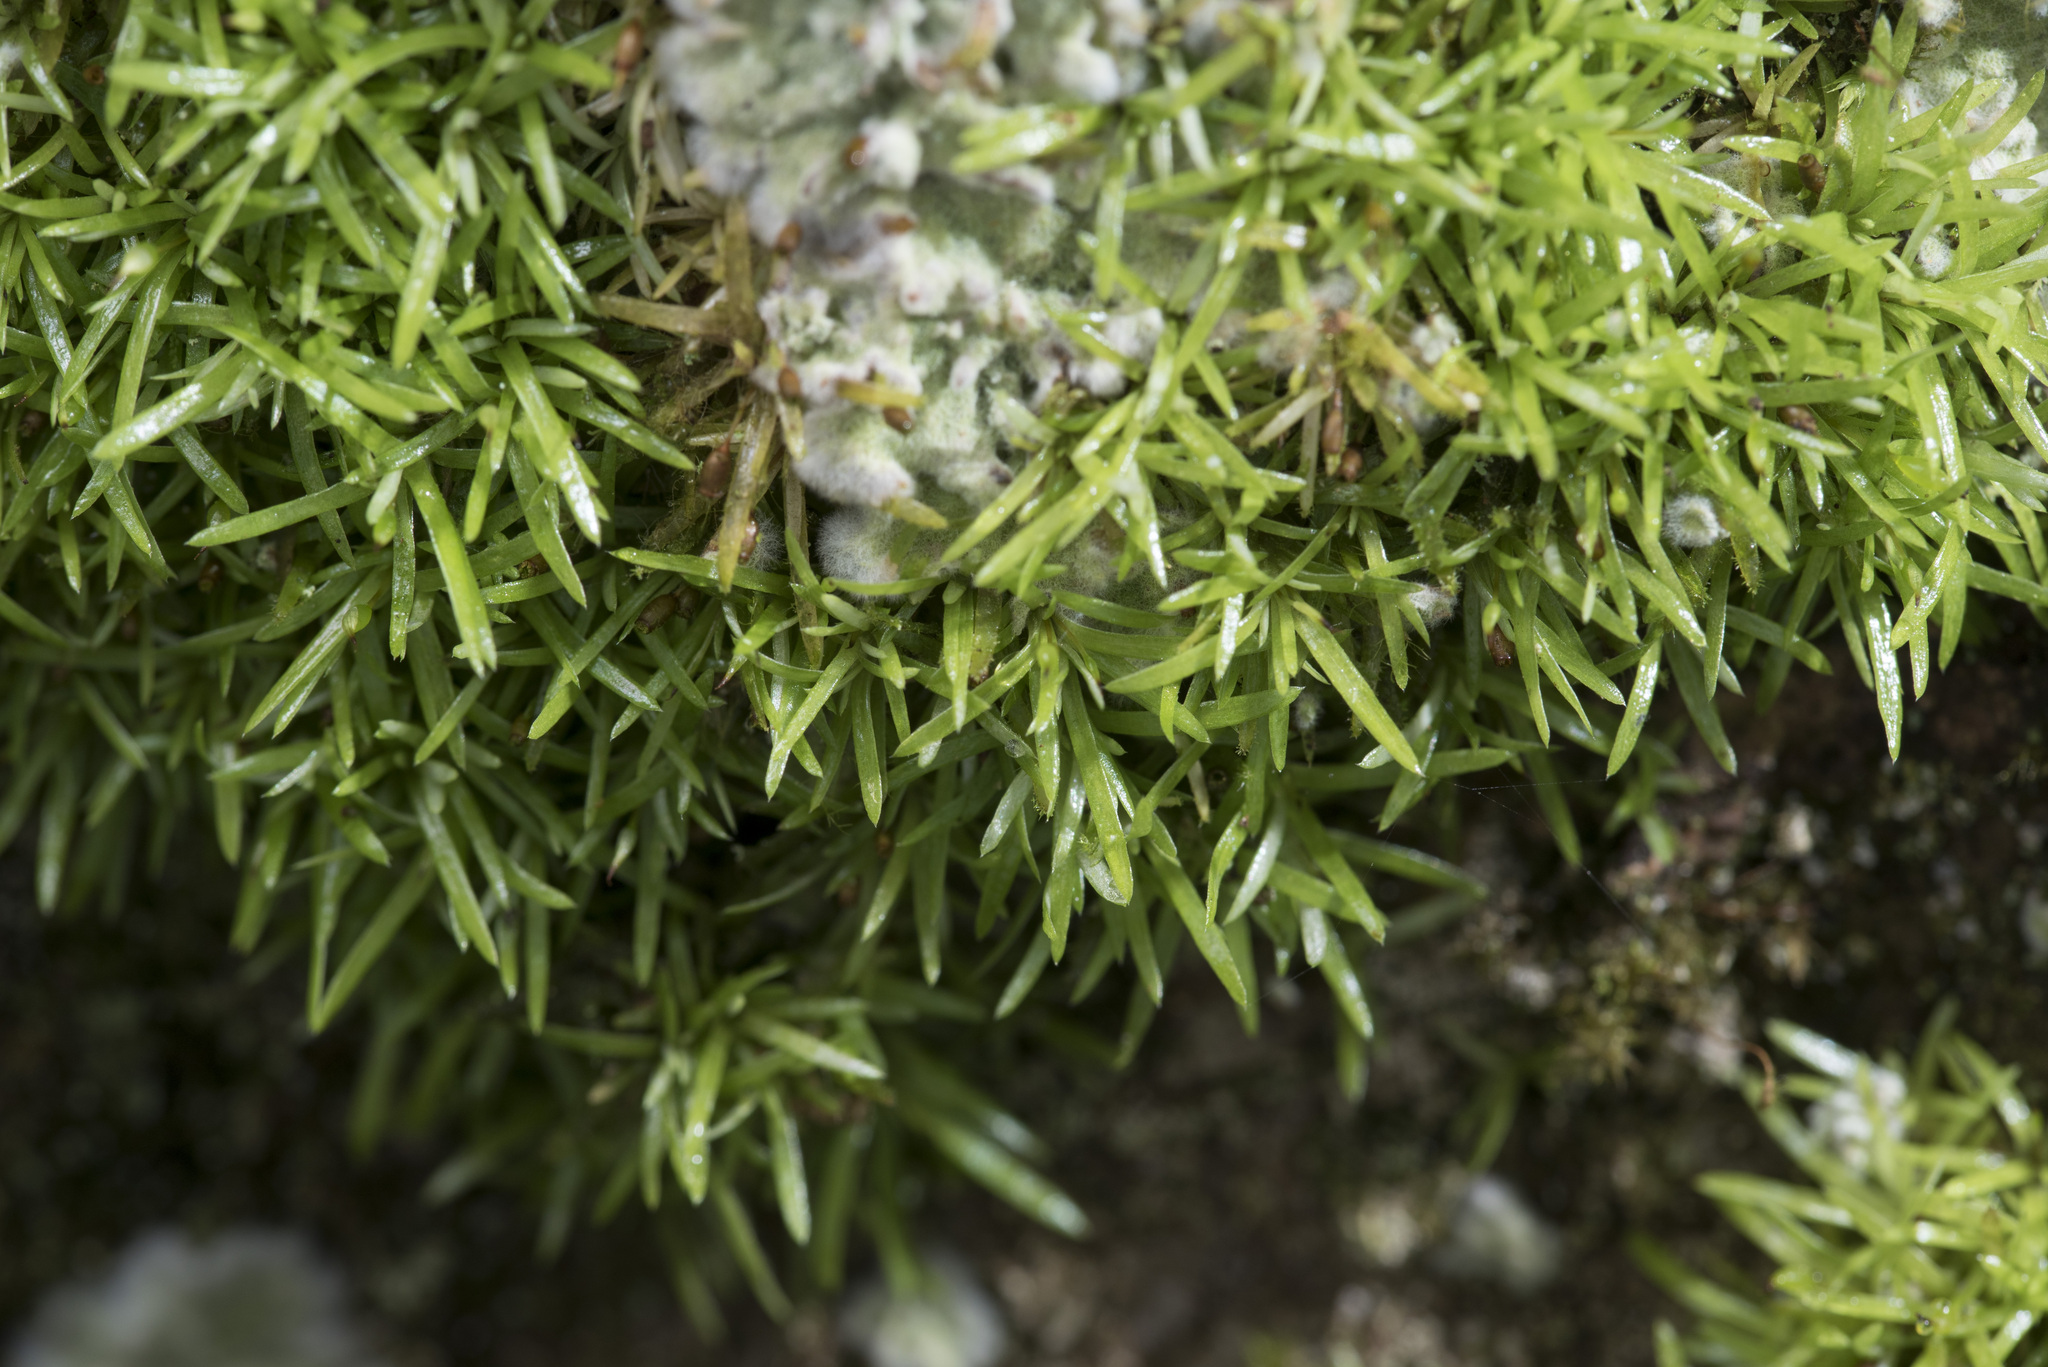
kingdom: Plantae
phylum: Bryophyta
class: Bryopsida
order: Dicranales
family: Octoblepharaceae
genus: Octoblepharum
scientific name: Octoblepharum albidum
